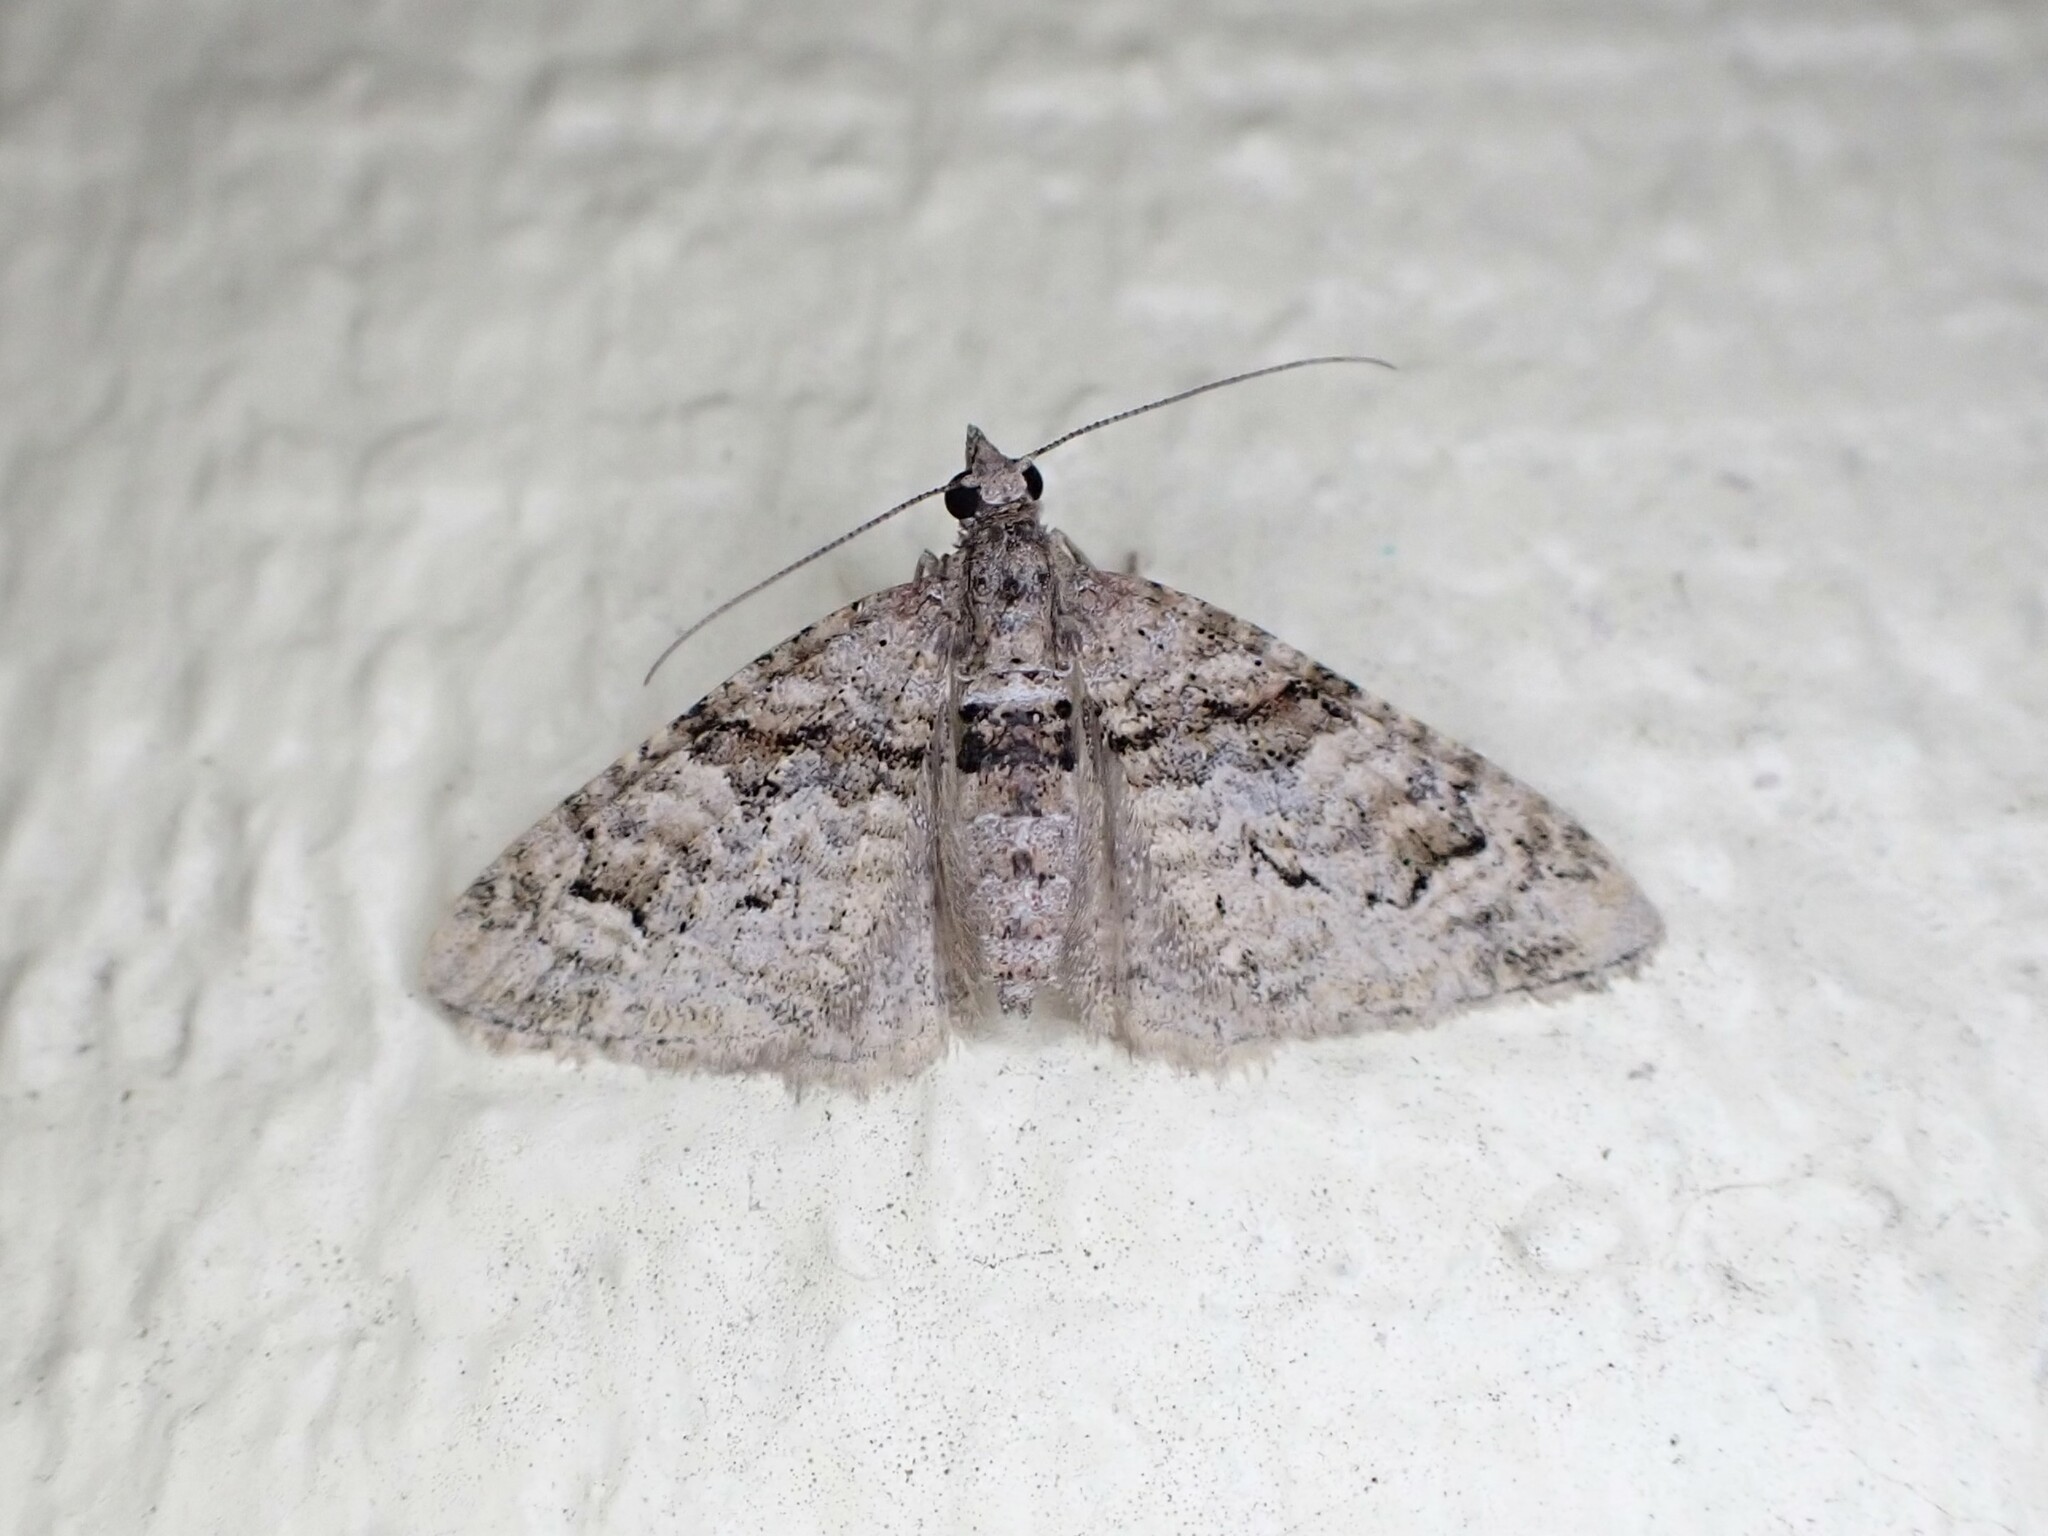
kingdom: Animalia
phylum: Arthropoda
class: Insecta
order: Lepidoptera
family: Geometridae
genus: Phrissogonus
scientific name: Phrissogonus laticostata
